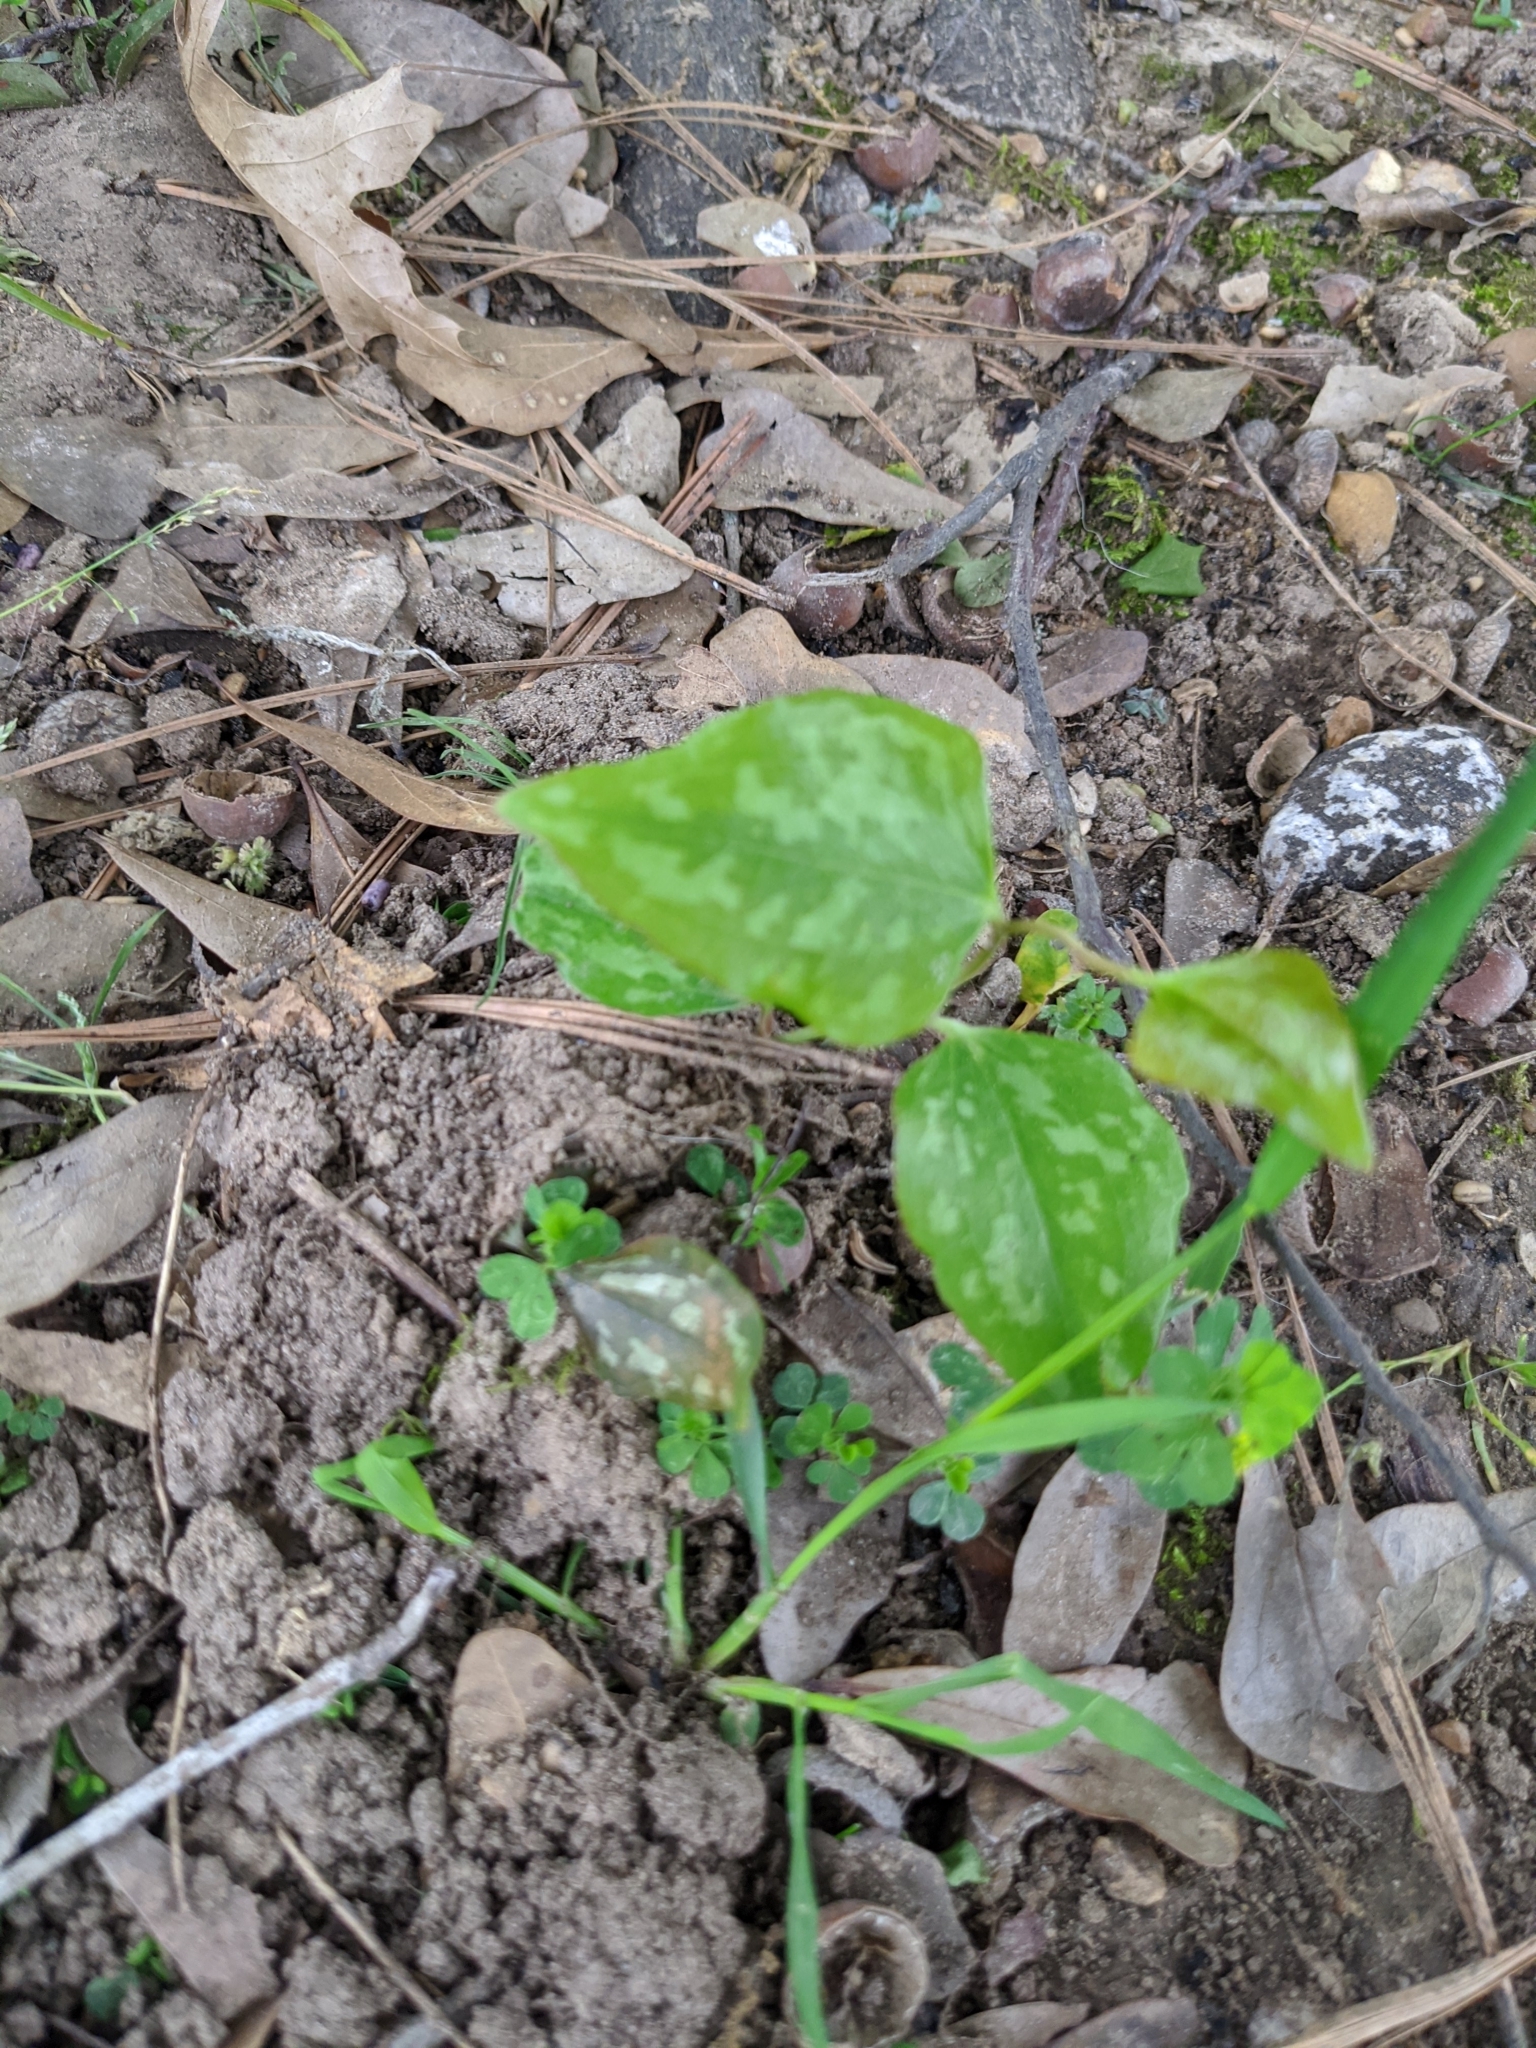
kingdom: Plantae
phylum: Tracheophyta
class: Liliopsida
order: Liliales
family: Smilacaceae
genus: Smilax
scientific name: Smilax bona-nox
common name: Catbrier
